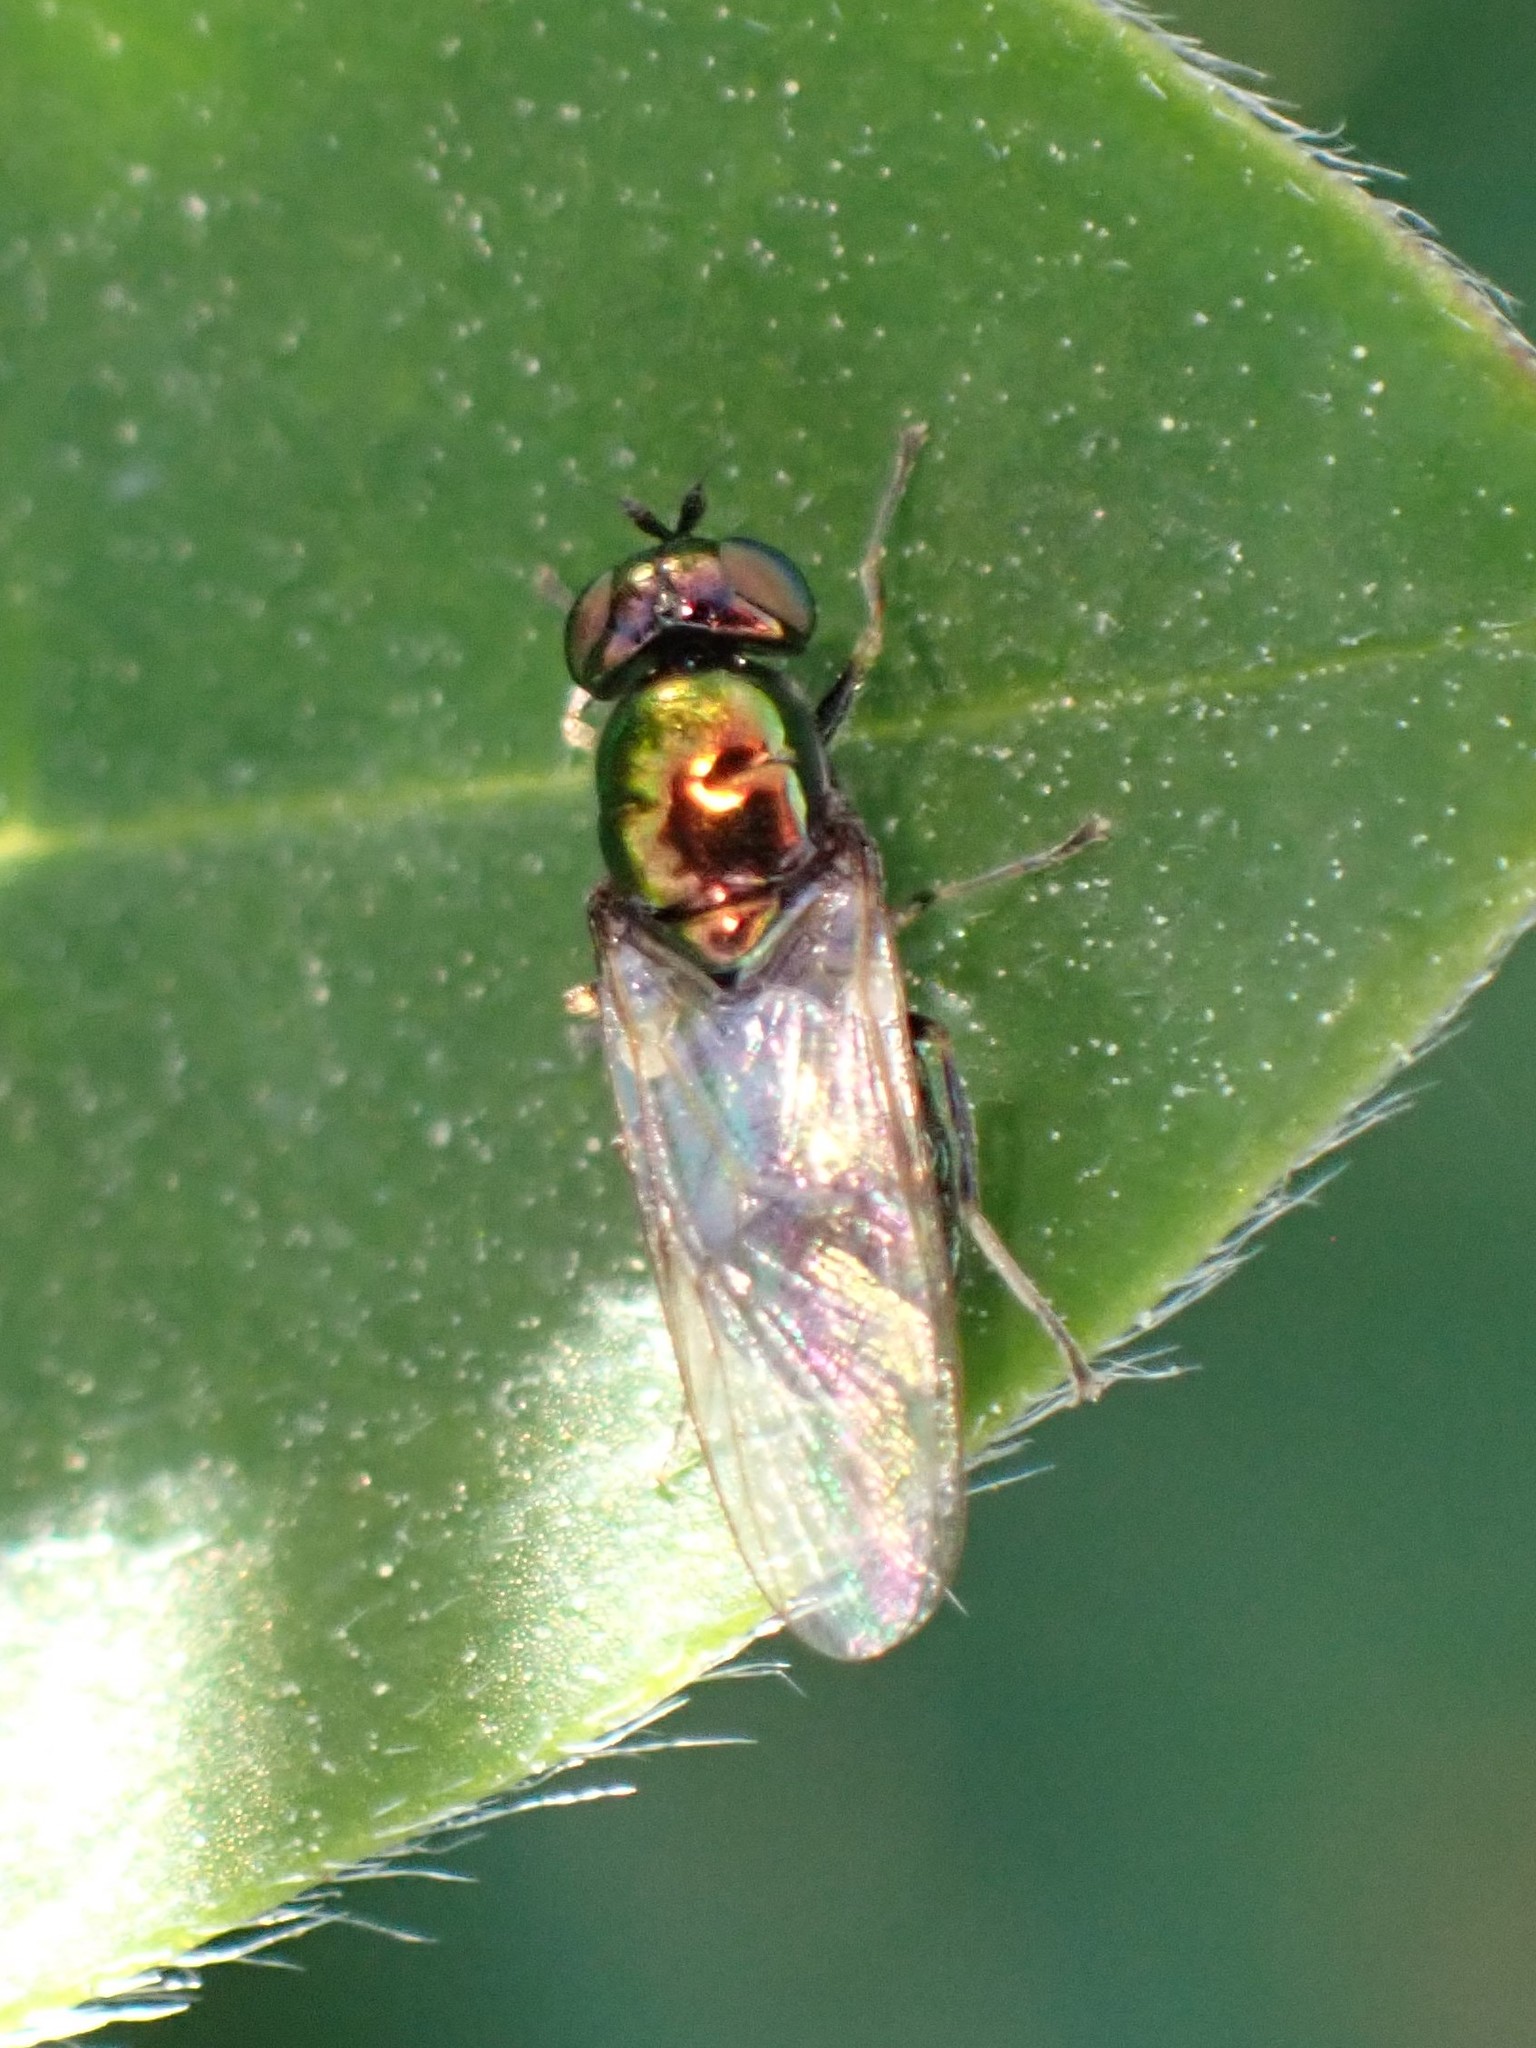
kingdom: Animalia
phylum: Arthropoda
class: Insecta
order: Diptera
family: Stratiomyidae
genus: Microchrysa
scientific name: Microchrysa polita
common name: Black-horned gem
